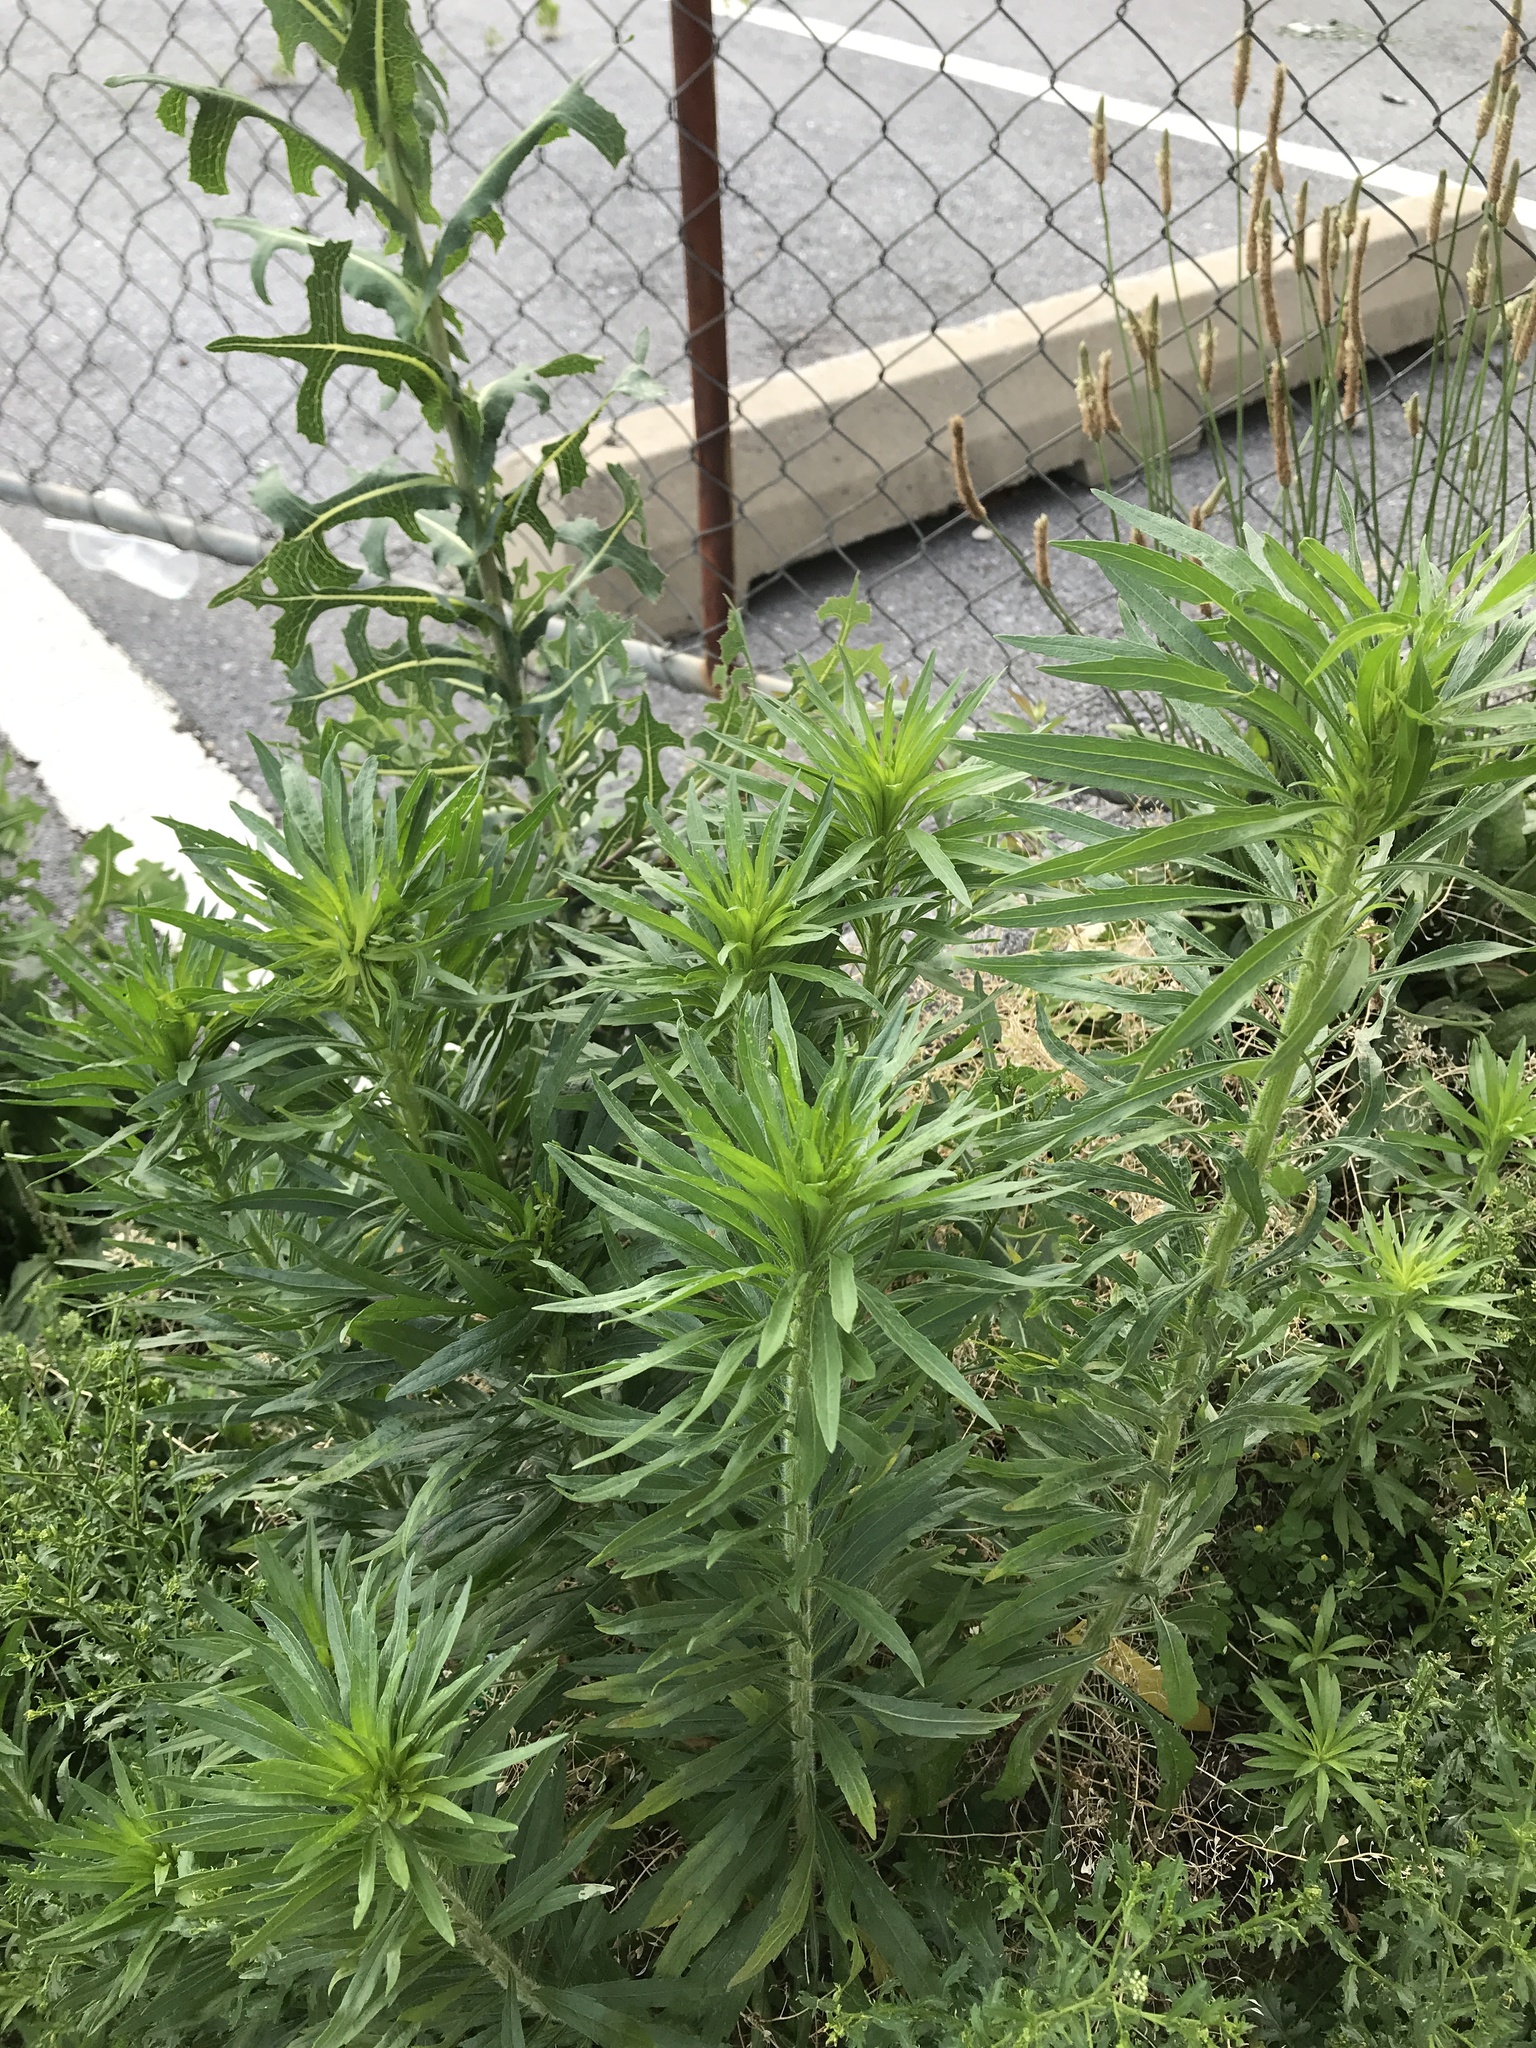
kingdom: Plantae
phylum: Tracheophyta
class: Magnoliopsida
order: Asterales
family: Asteraceae
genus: Erigeron
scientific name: Erigeron canadensis
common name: Canadian fleabane
